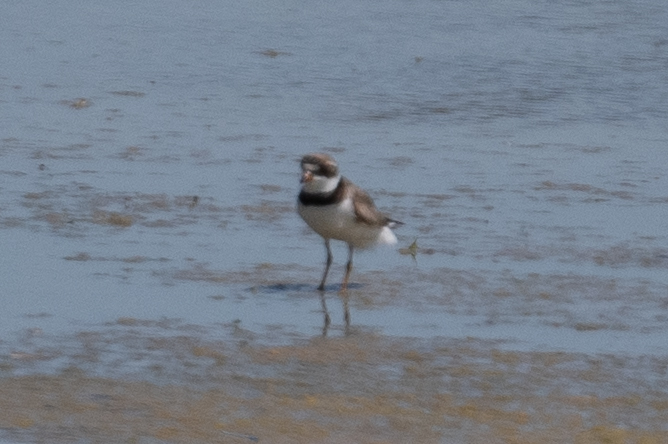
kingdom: Animalia
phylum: Chordata
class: Aves
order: Charadriiformes
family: Charadriidae
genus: Charadrius
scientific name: Charadrius semipalmatus
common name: Semipalmated plover
